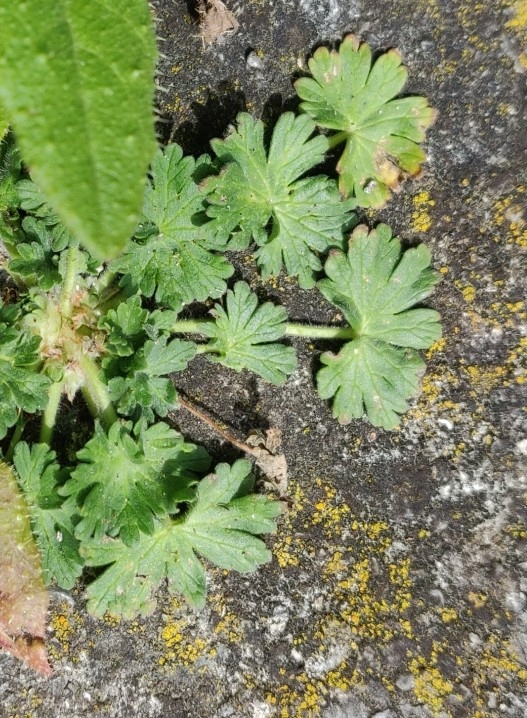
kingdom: Plantae
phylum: Tracheophyta
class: Magnoliopsida
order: Geraniales
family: Geraniaceae
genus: Geranium
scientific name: Geranium molle
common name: Dove's-foot crane's-bill
